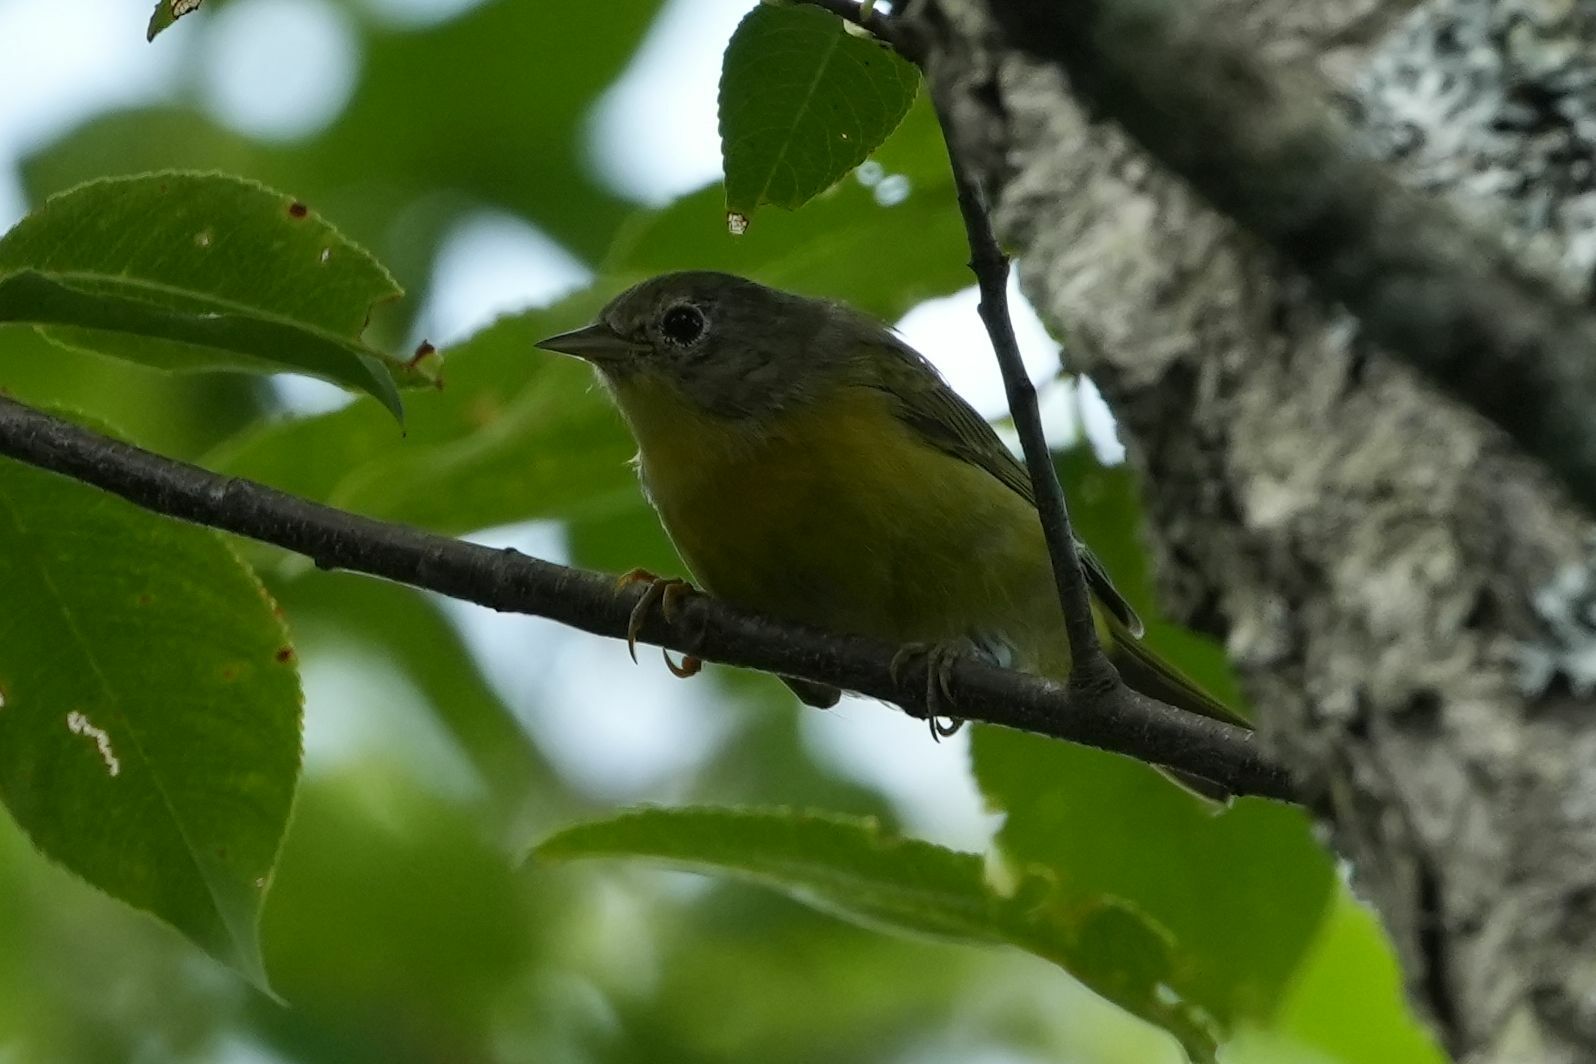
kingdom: Animalia
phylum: Chordata
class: Aves
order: Passeriformes
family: Parulidae
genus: Leiothlypis
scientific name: Leiothlypis ruficapilla
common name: Nashville warbler
